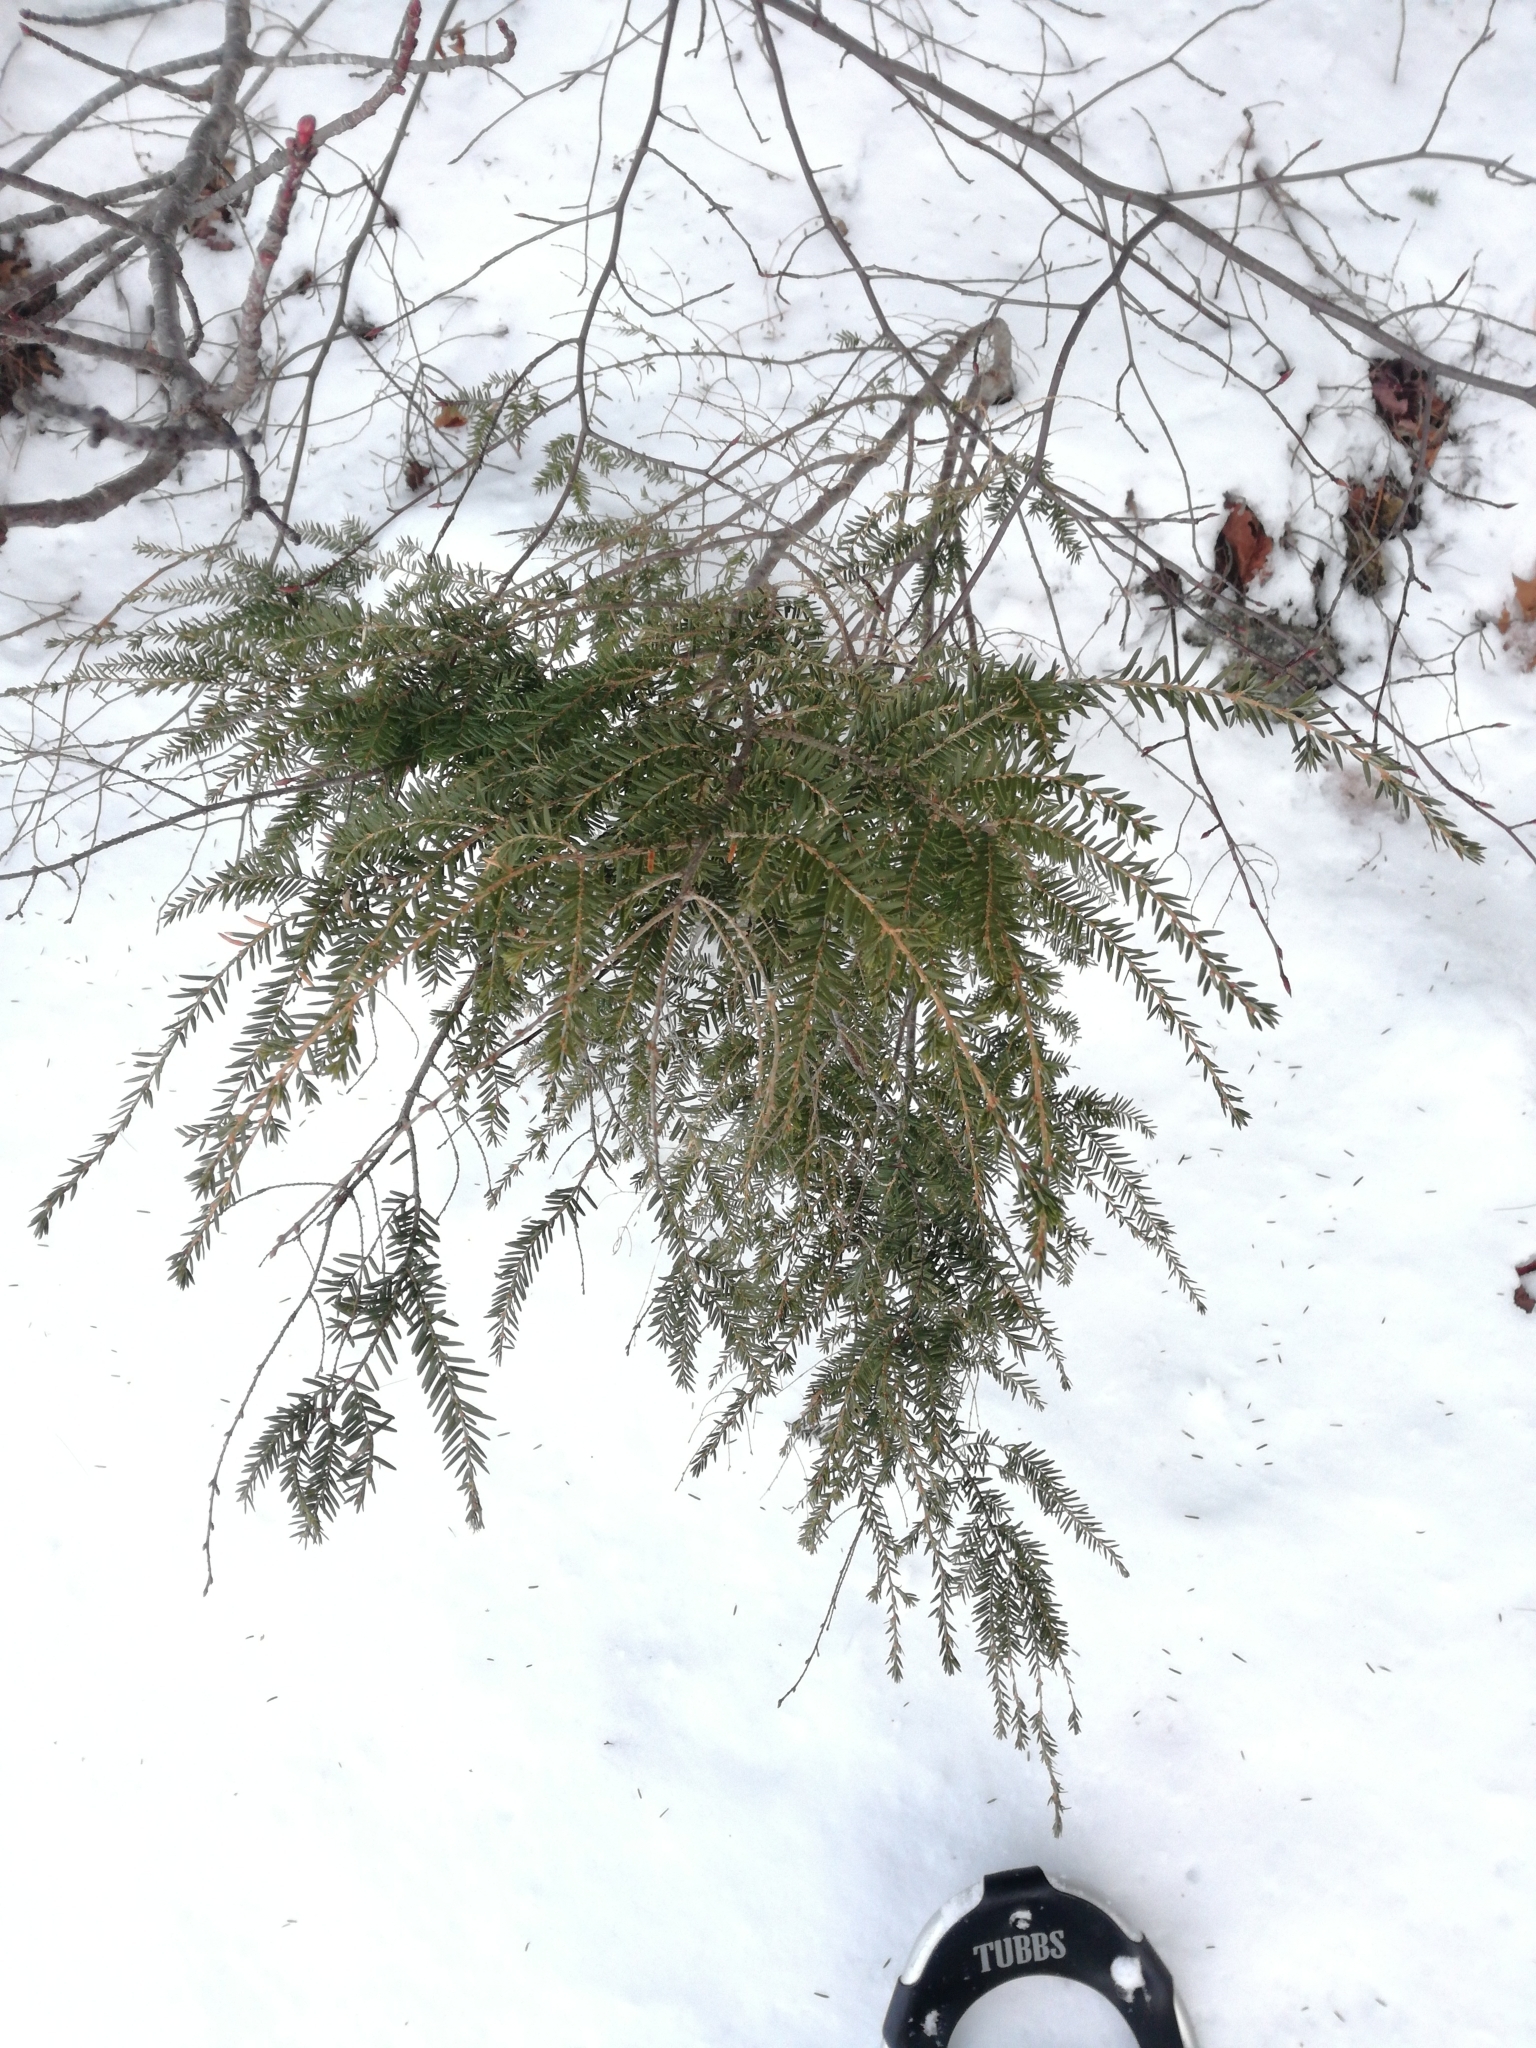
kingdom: Plantae
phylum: Tracheophyta
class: Pinopsida
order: Pinales
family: Pinaceae
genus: Tsuga
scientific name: Tsuga canadensis
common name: Eastern hemlock
